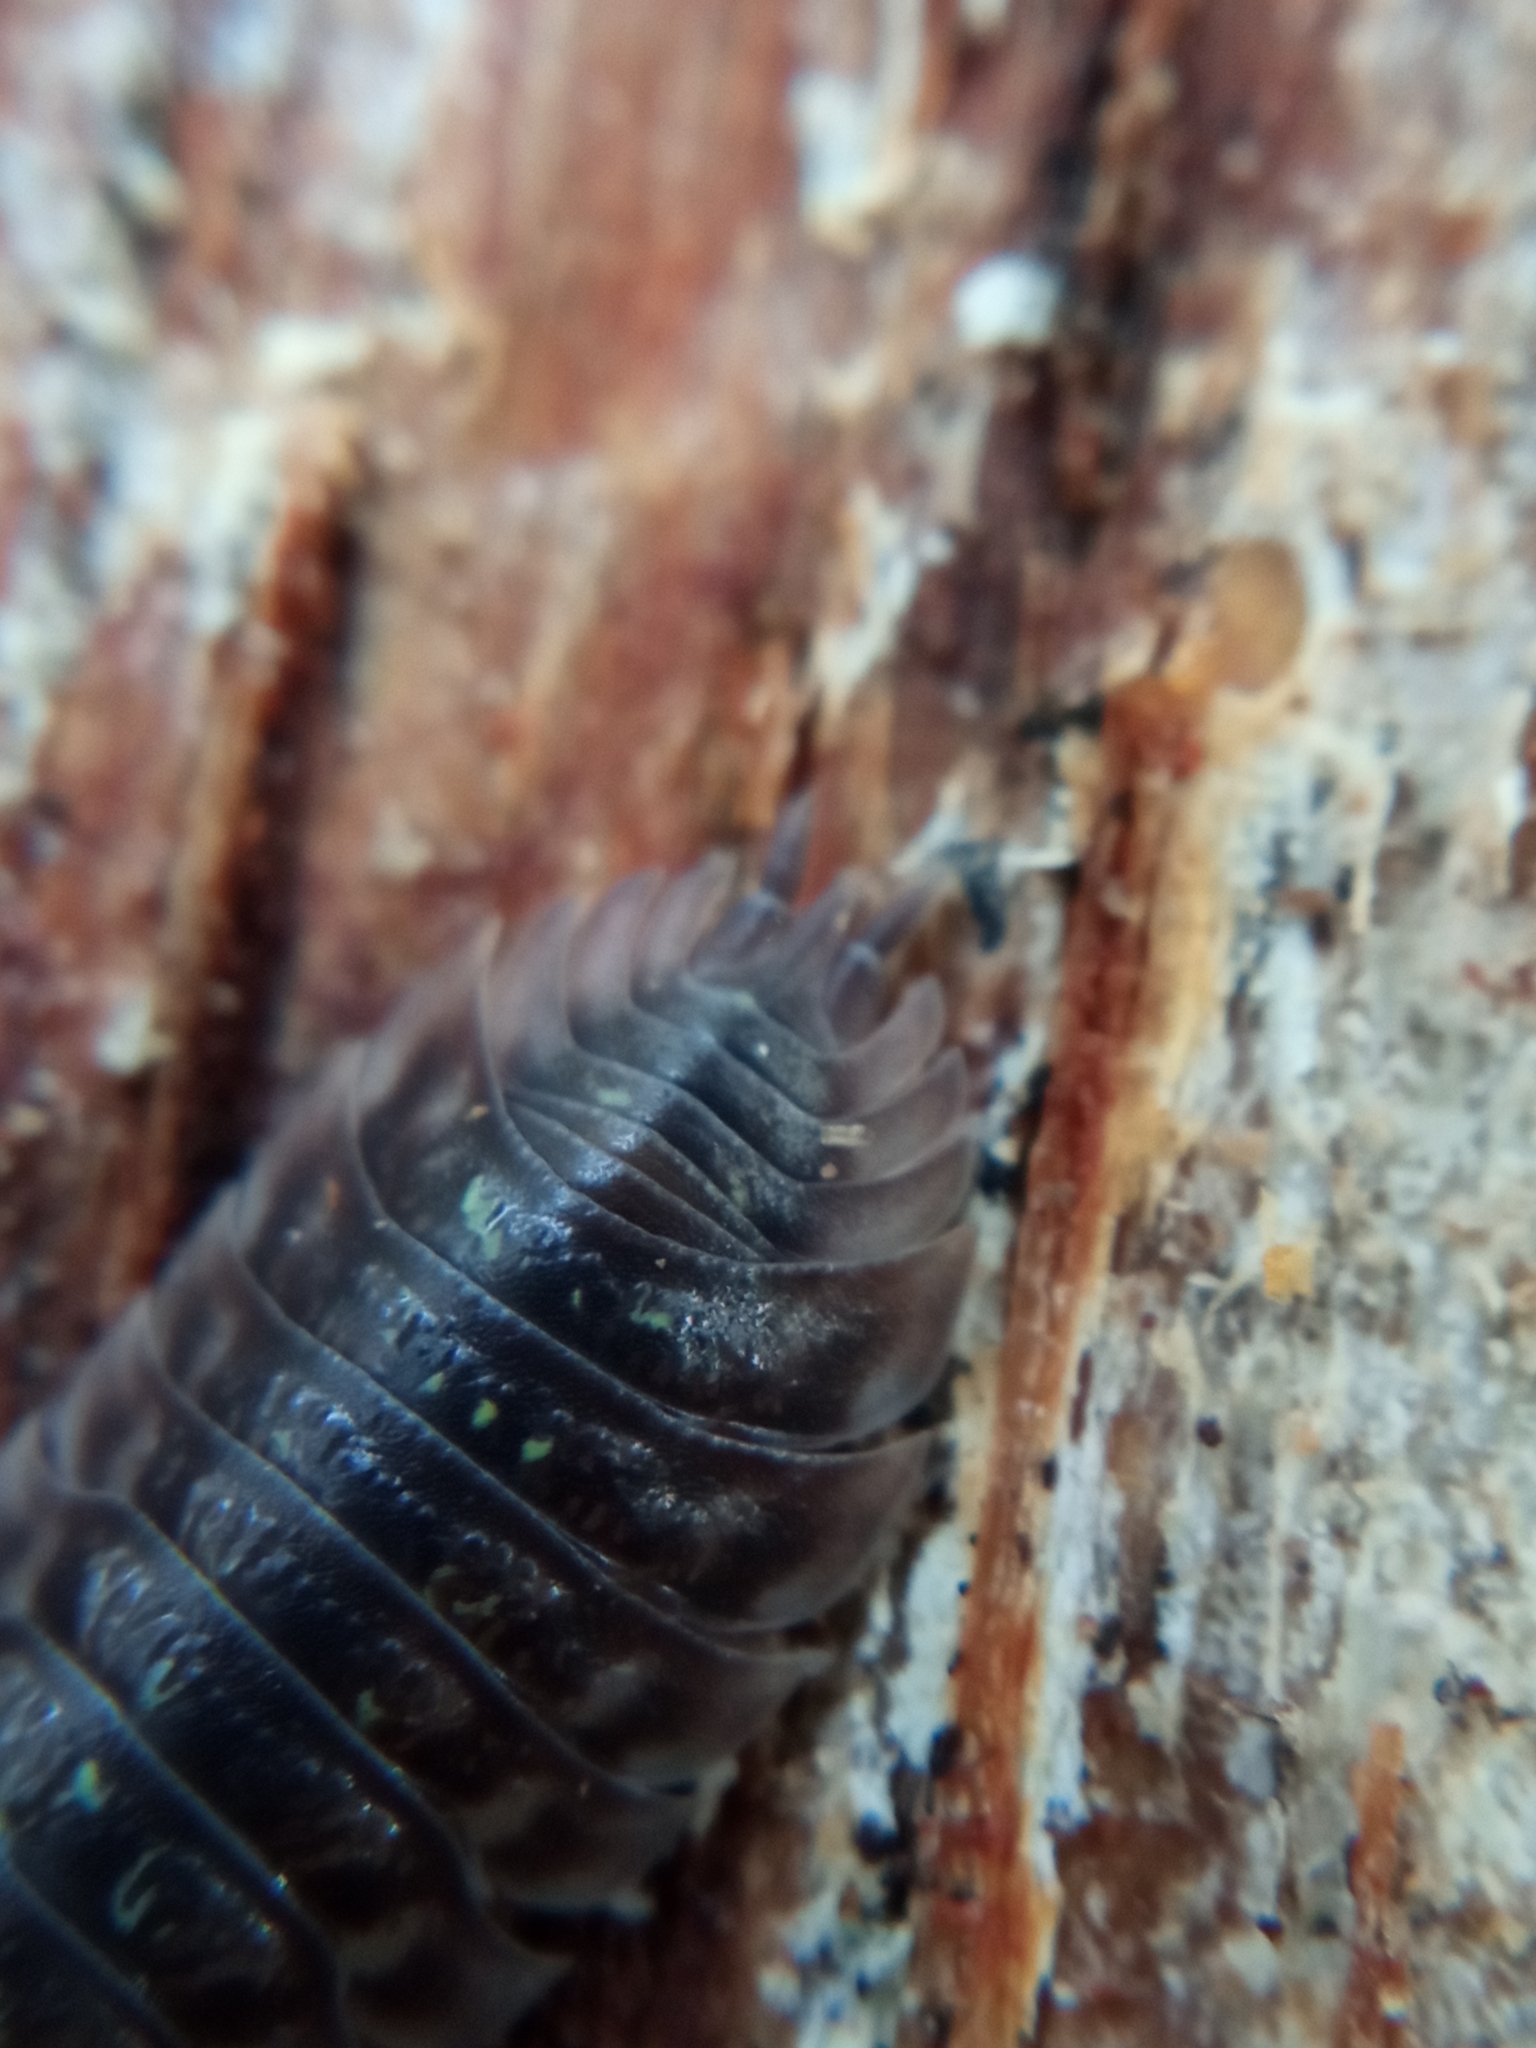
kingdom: Animalia
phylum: Arthropoda
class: Malacostraca
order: Isopoda
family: Oniscidae
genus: Oniscus
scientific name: Oniscus asellus
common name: Common shiny woodlouse
